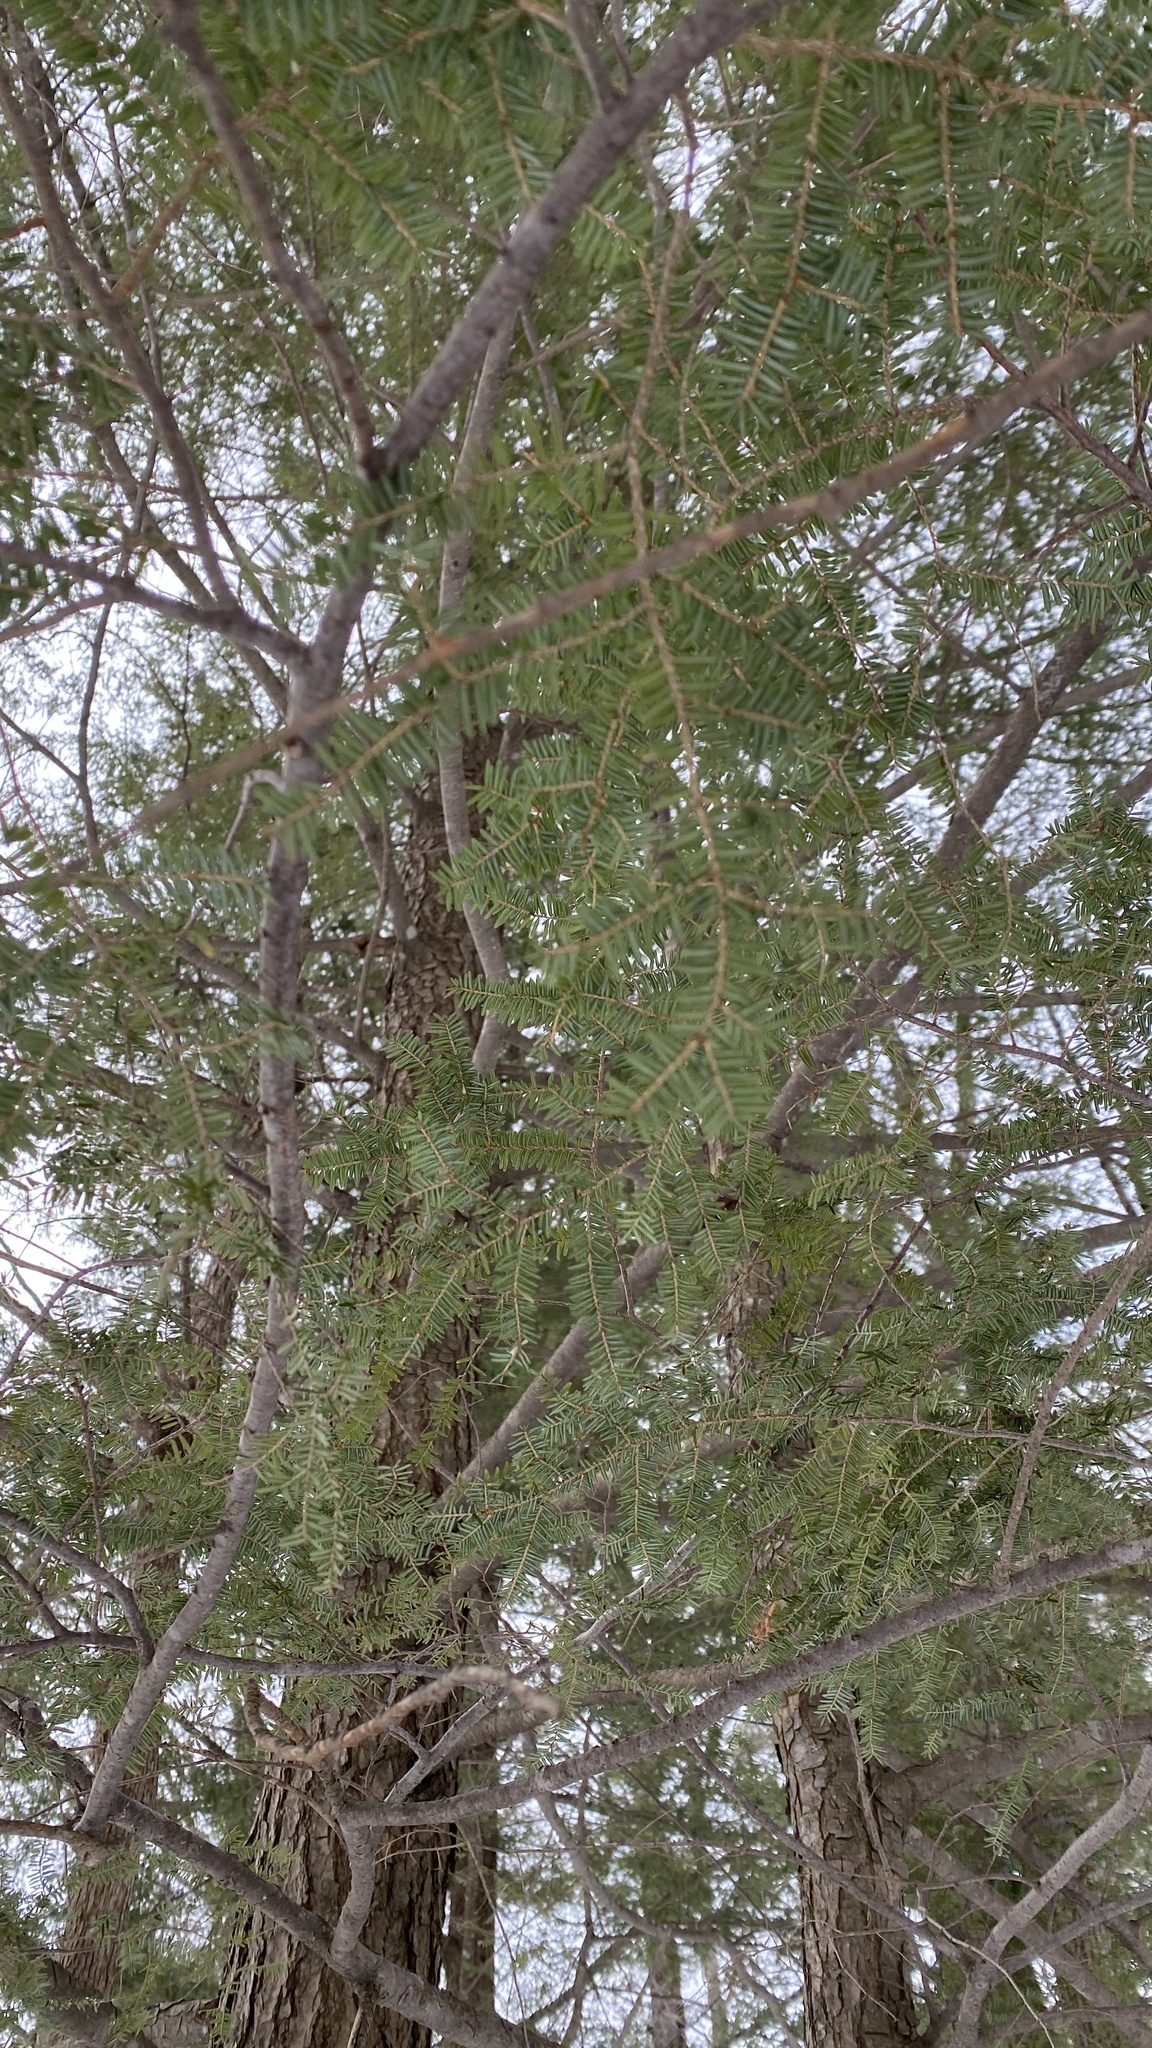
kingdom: Plantae
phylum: Tracheophyta
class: Pinopsida
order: Pinales
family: Pinaceae
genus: Tsuga
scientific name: Tsuga canadensis
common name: Eastern hemlock
